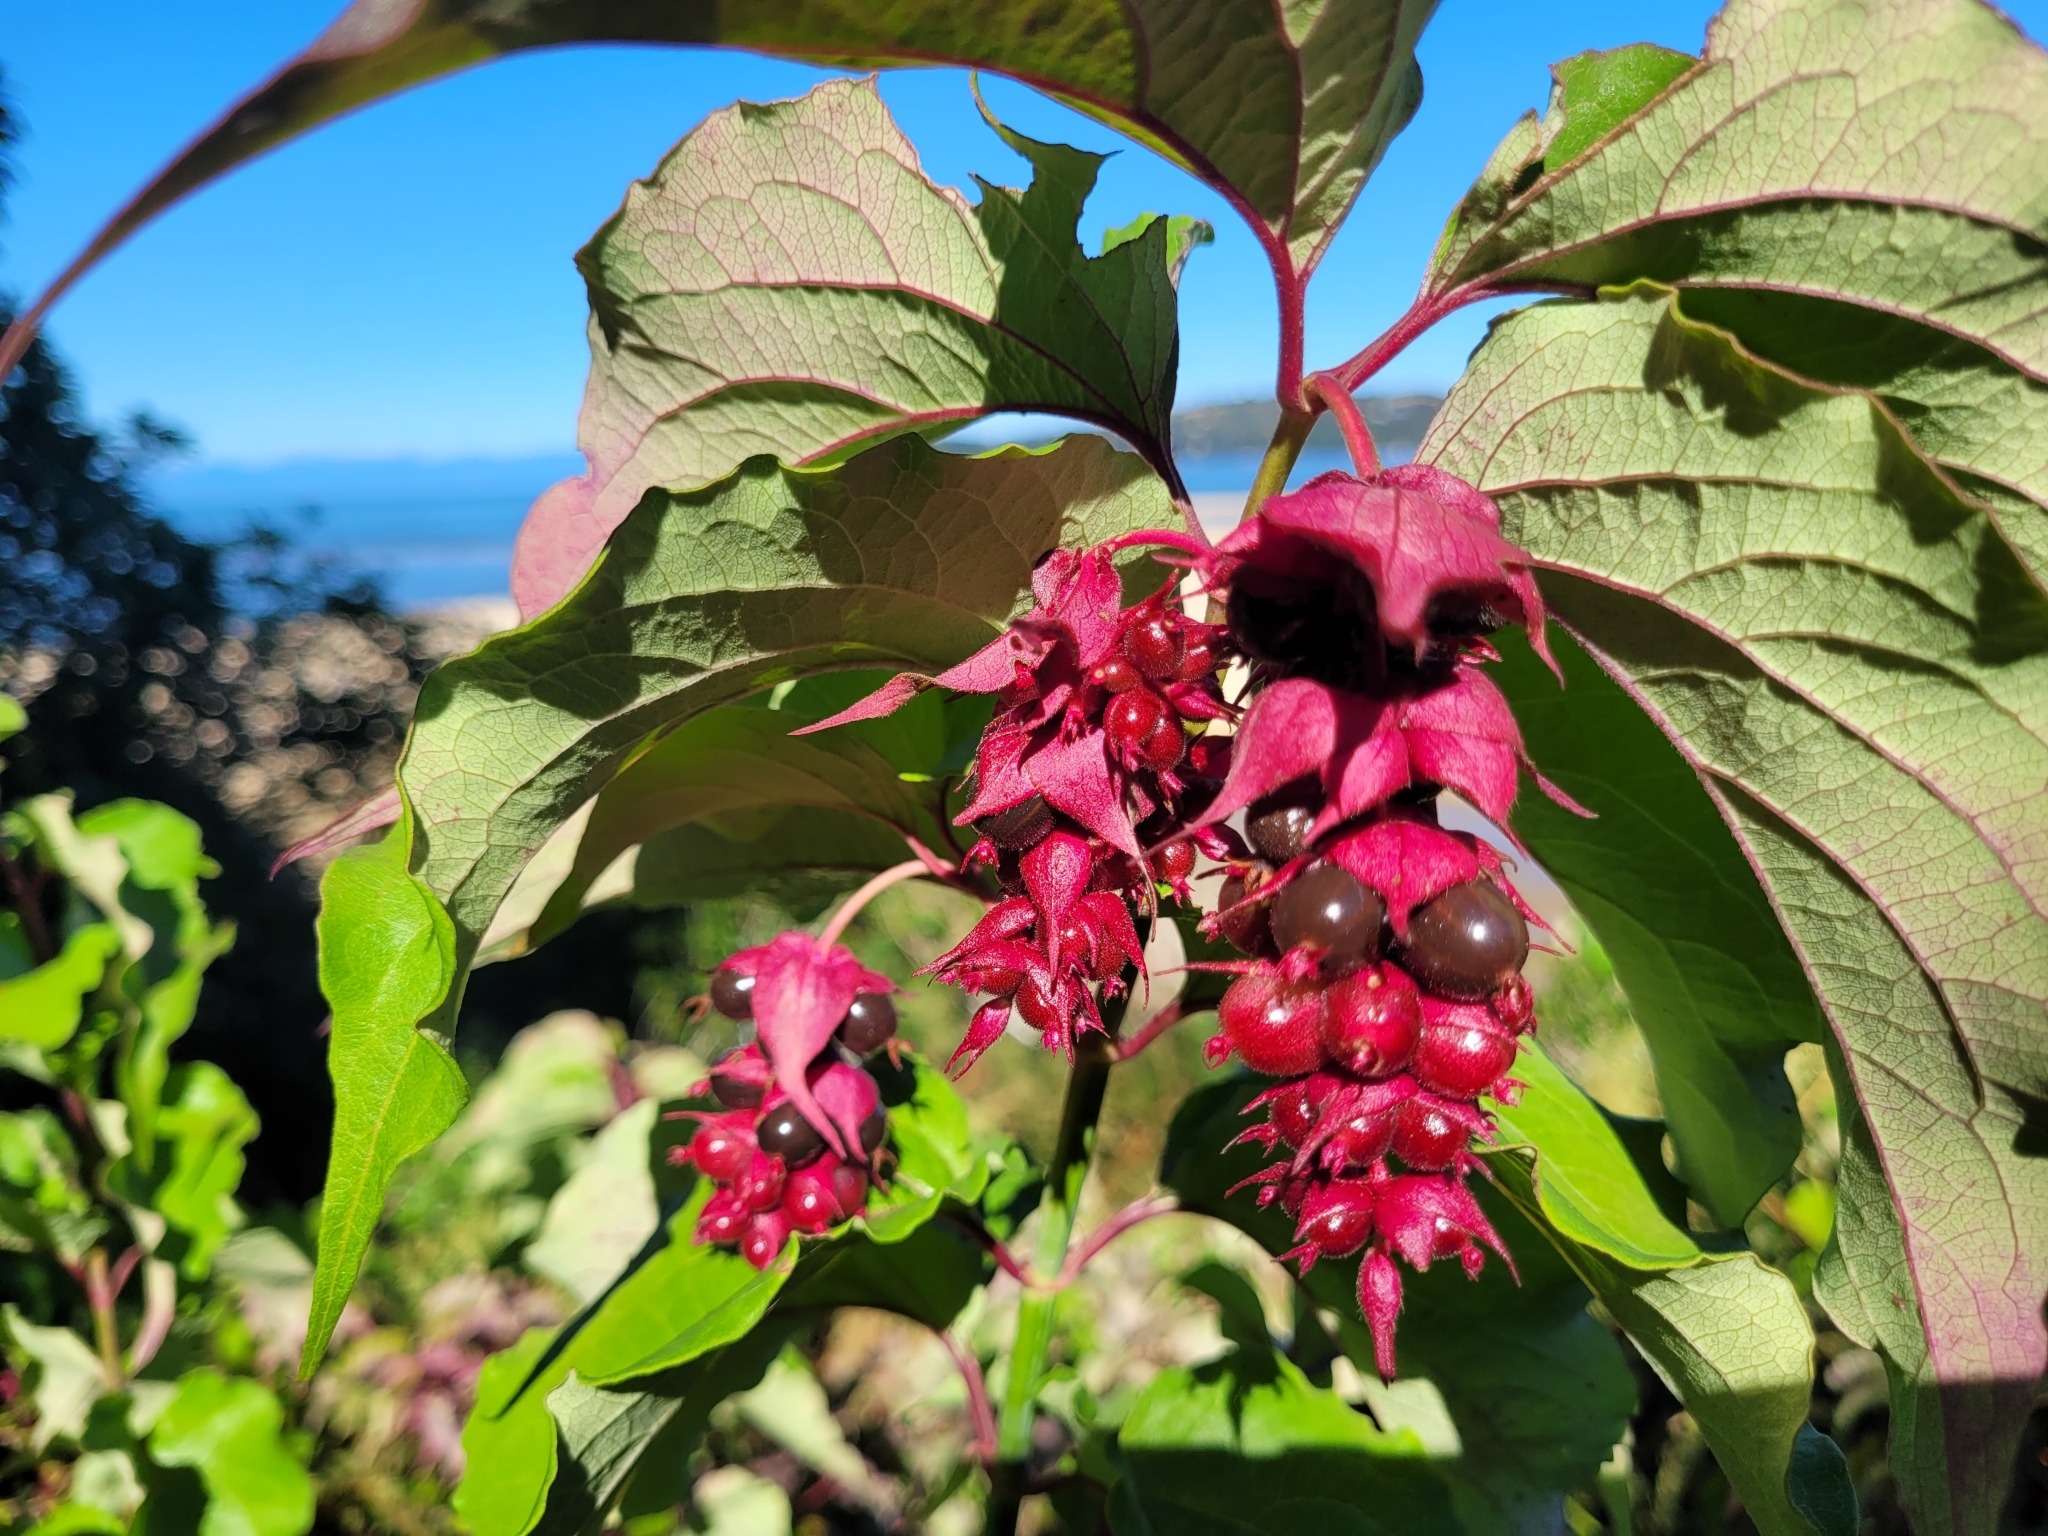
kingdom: Plantae
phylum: Tracheophyta
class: Magnoliopsida
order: Dipsacales
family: Caprifoliaceae
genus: Leycesteria
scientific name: Leycesteria formosa
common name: Himalayan honeysuckle
